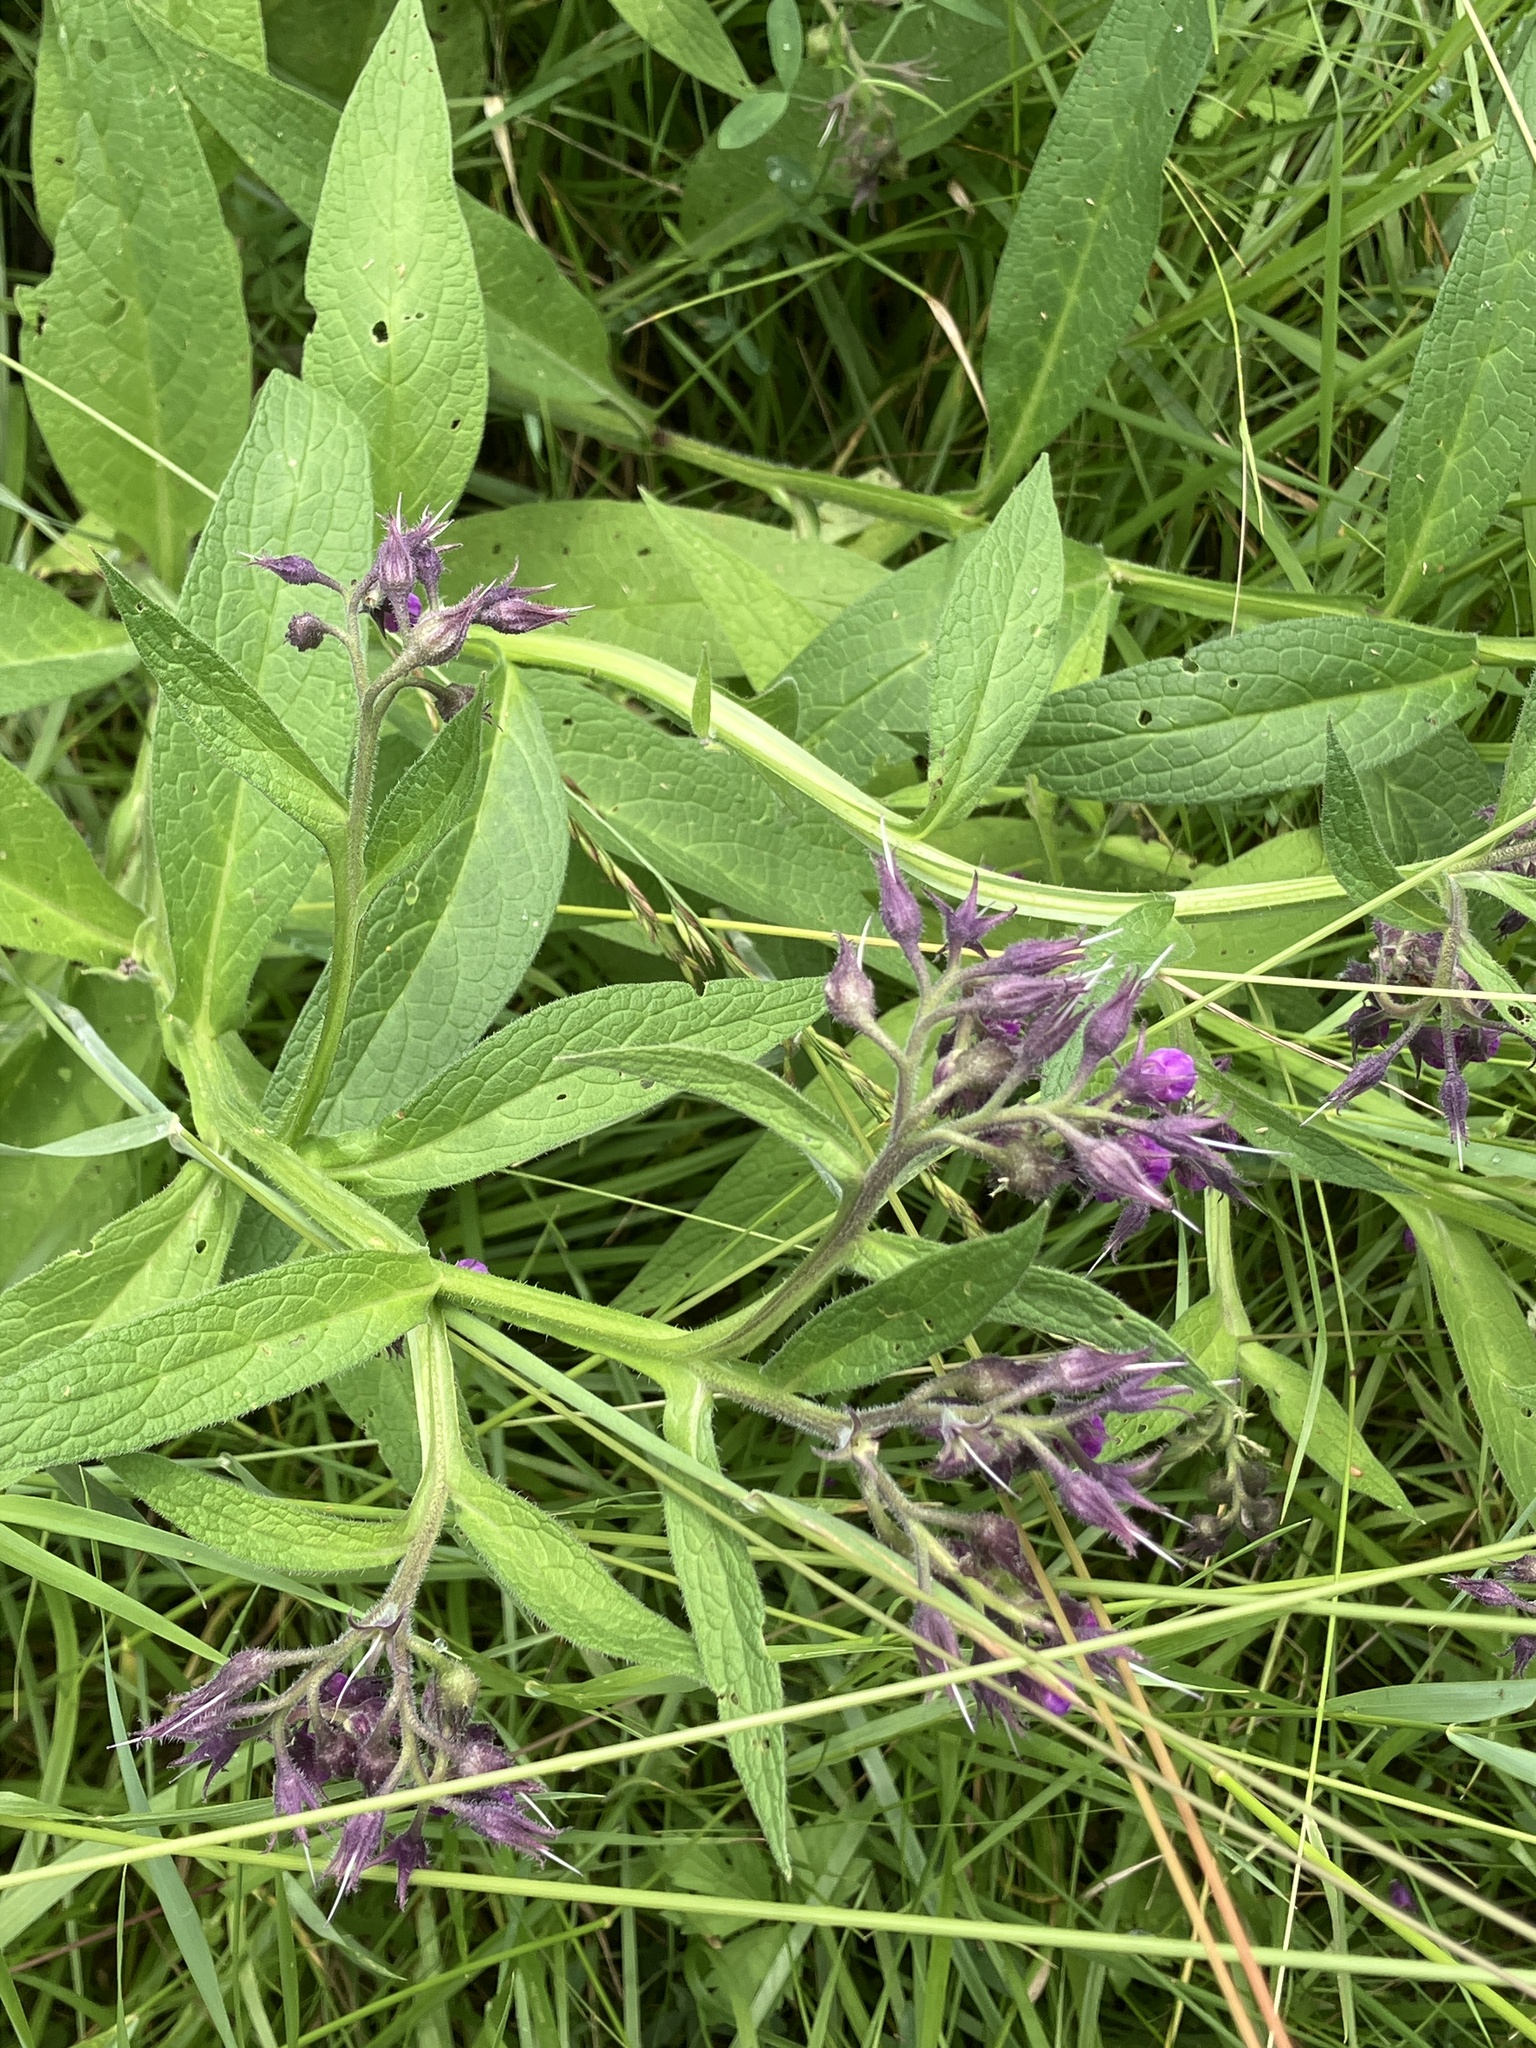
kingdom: Plantae
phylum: Tracheophyta
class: Magnoliopsida
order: Boraginales
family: Boraginaceae
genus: Symphytum
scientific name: Symphytum officinale
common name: Common comfrey
